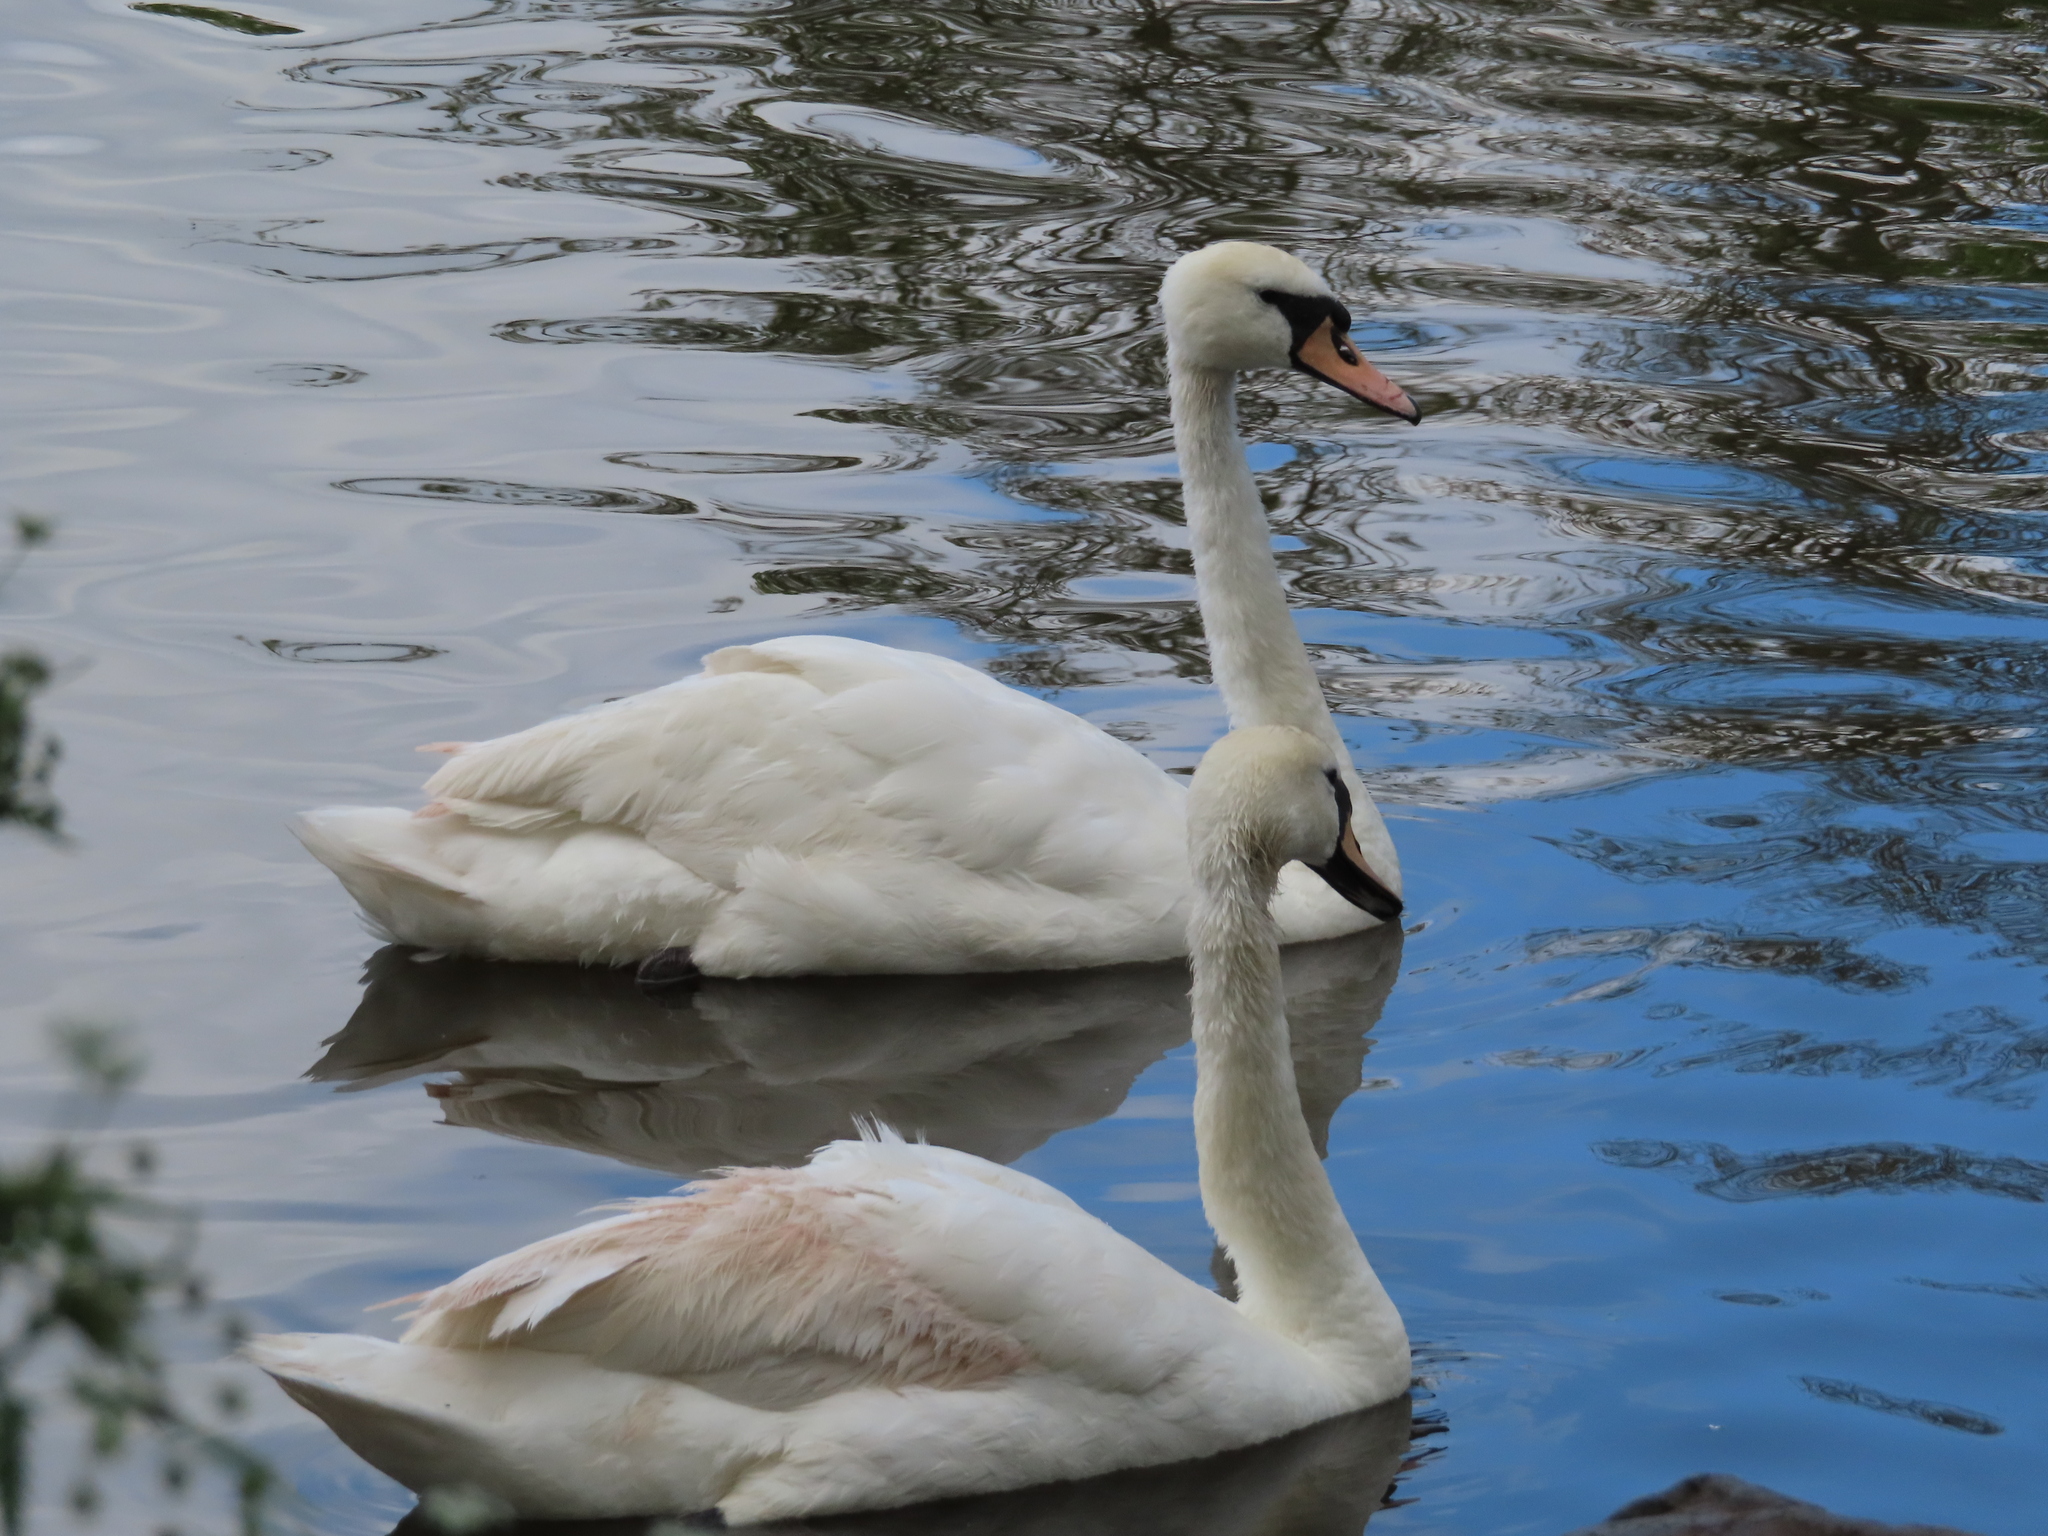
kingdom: Animalia
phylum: Chordata
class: Aves
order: Anseriformes
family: Anatidae
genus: Cygnus
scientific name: Cygnus olor
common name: Mute swan
